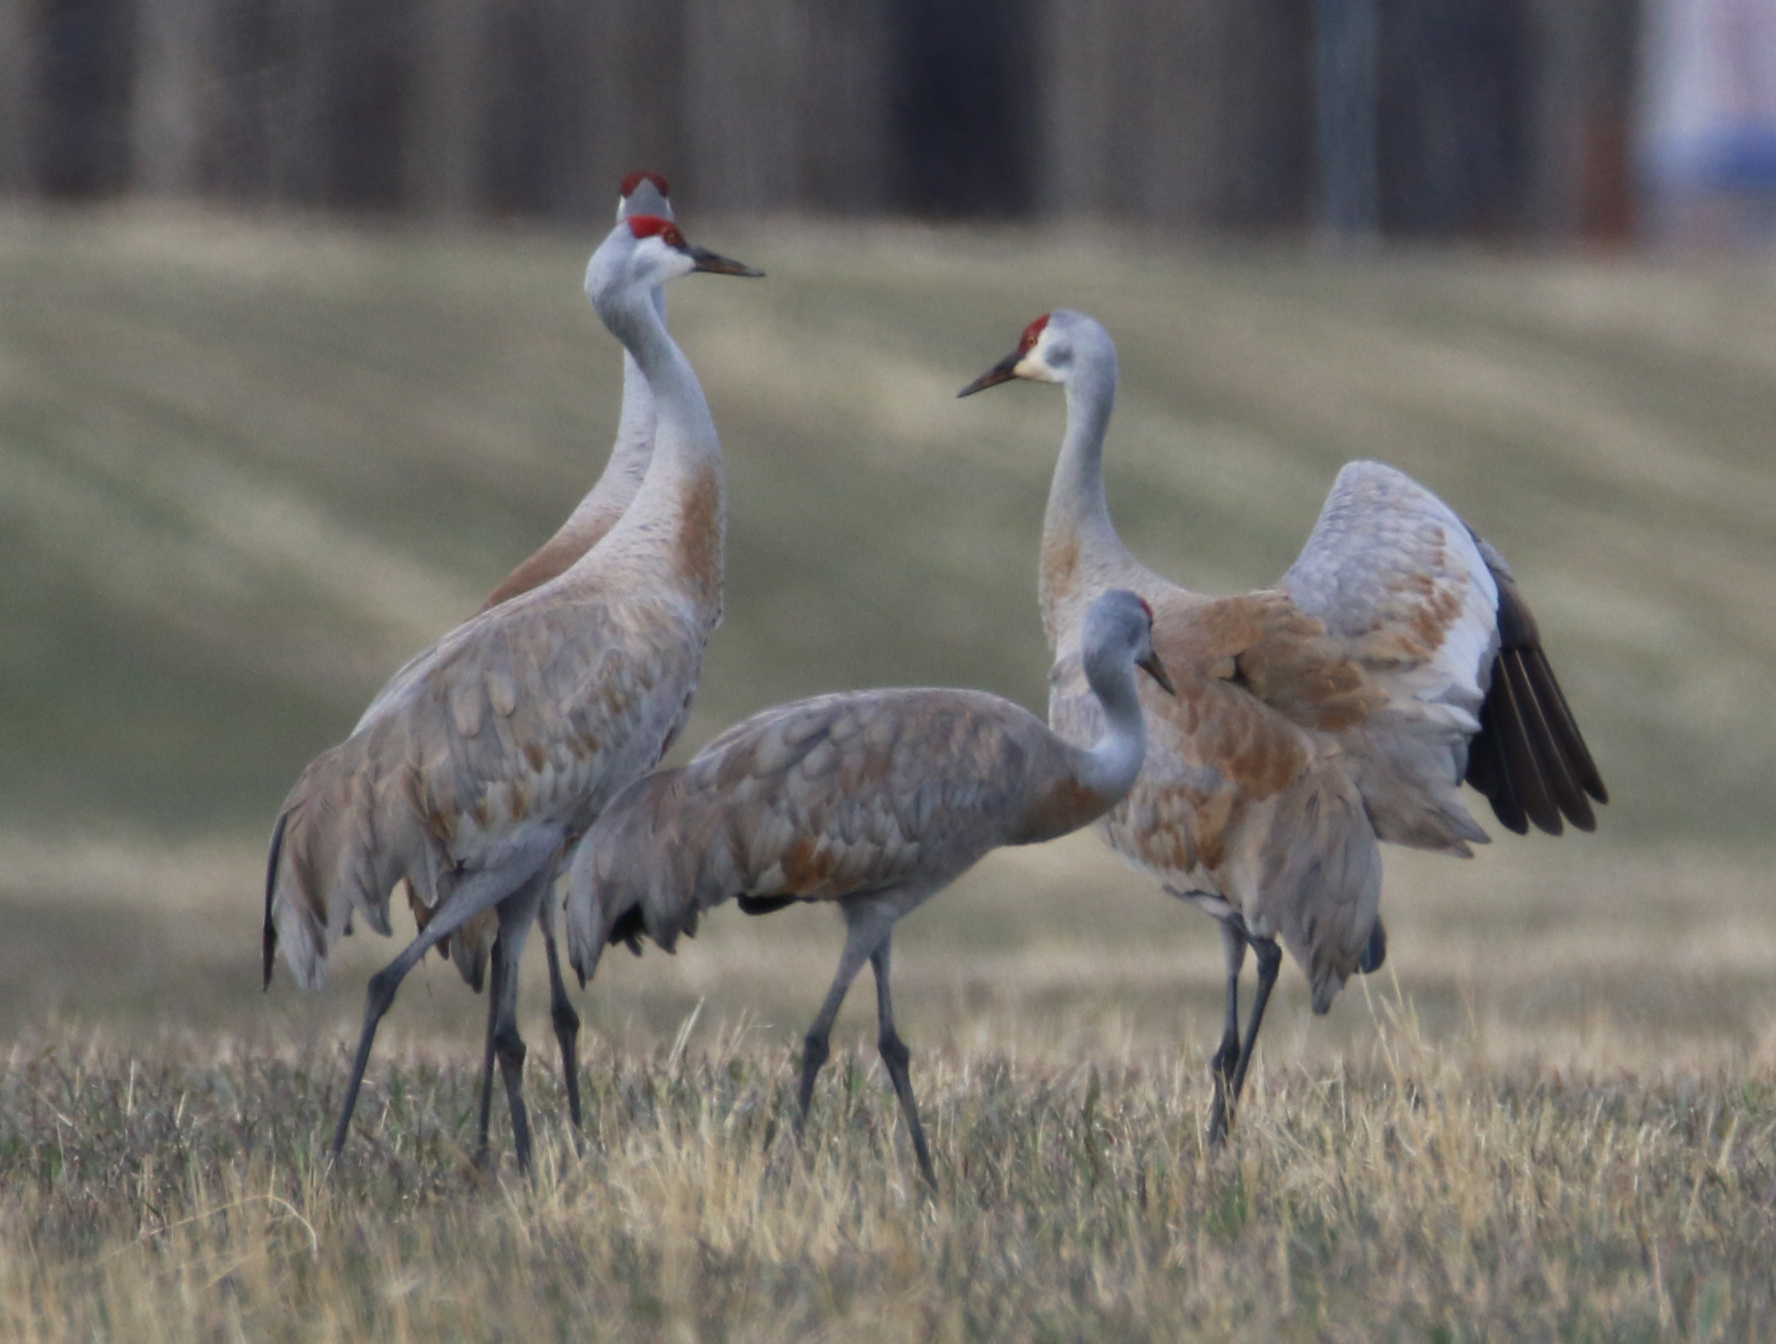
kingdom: Animalia
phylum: Chordata
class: Aves
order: Gruiformes
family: Gruidae
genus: Grus
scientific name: Grus canadensis
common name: Sandhill crane
